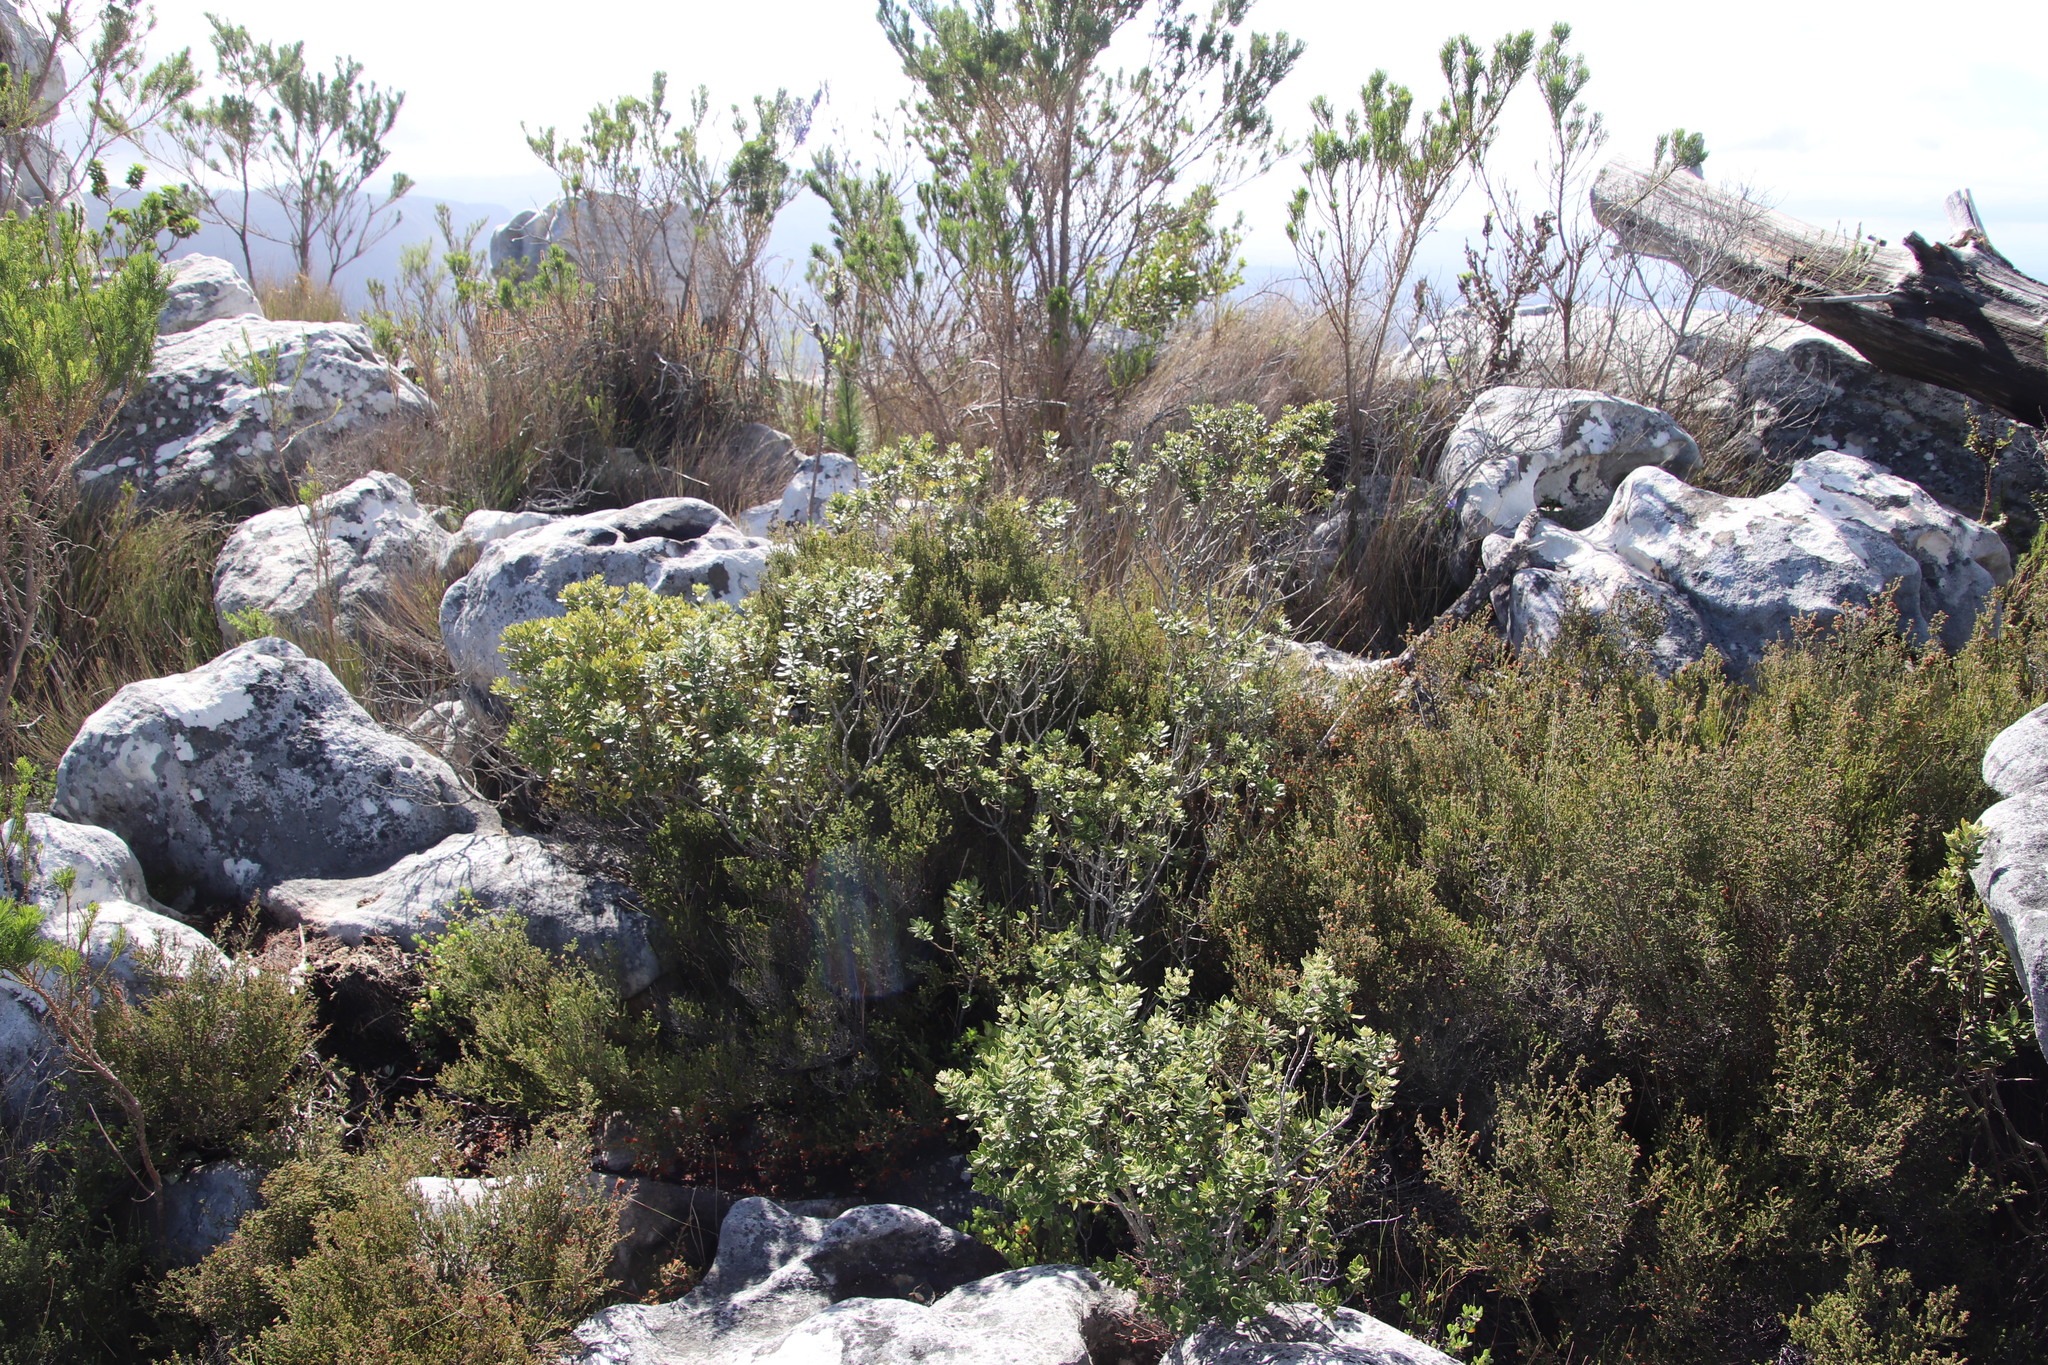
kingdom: Plantae
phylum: Tracheophyta
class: Magnoliopsida
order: Rosales
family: Rhamnaceae
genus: Phylica
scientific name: Phylica buxifolia
